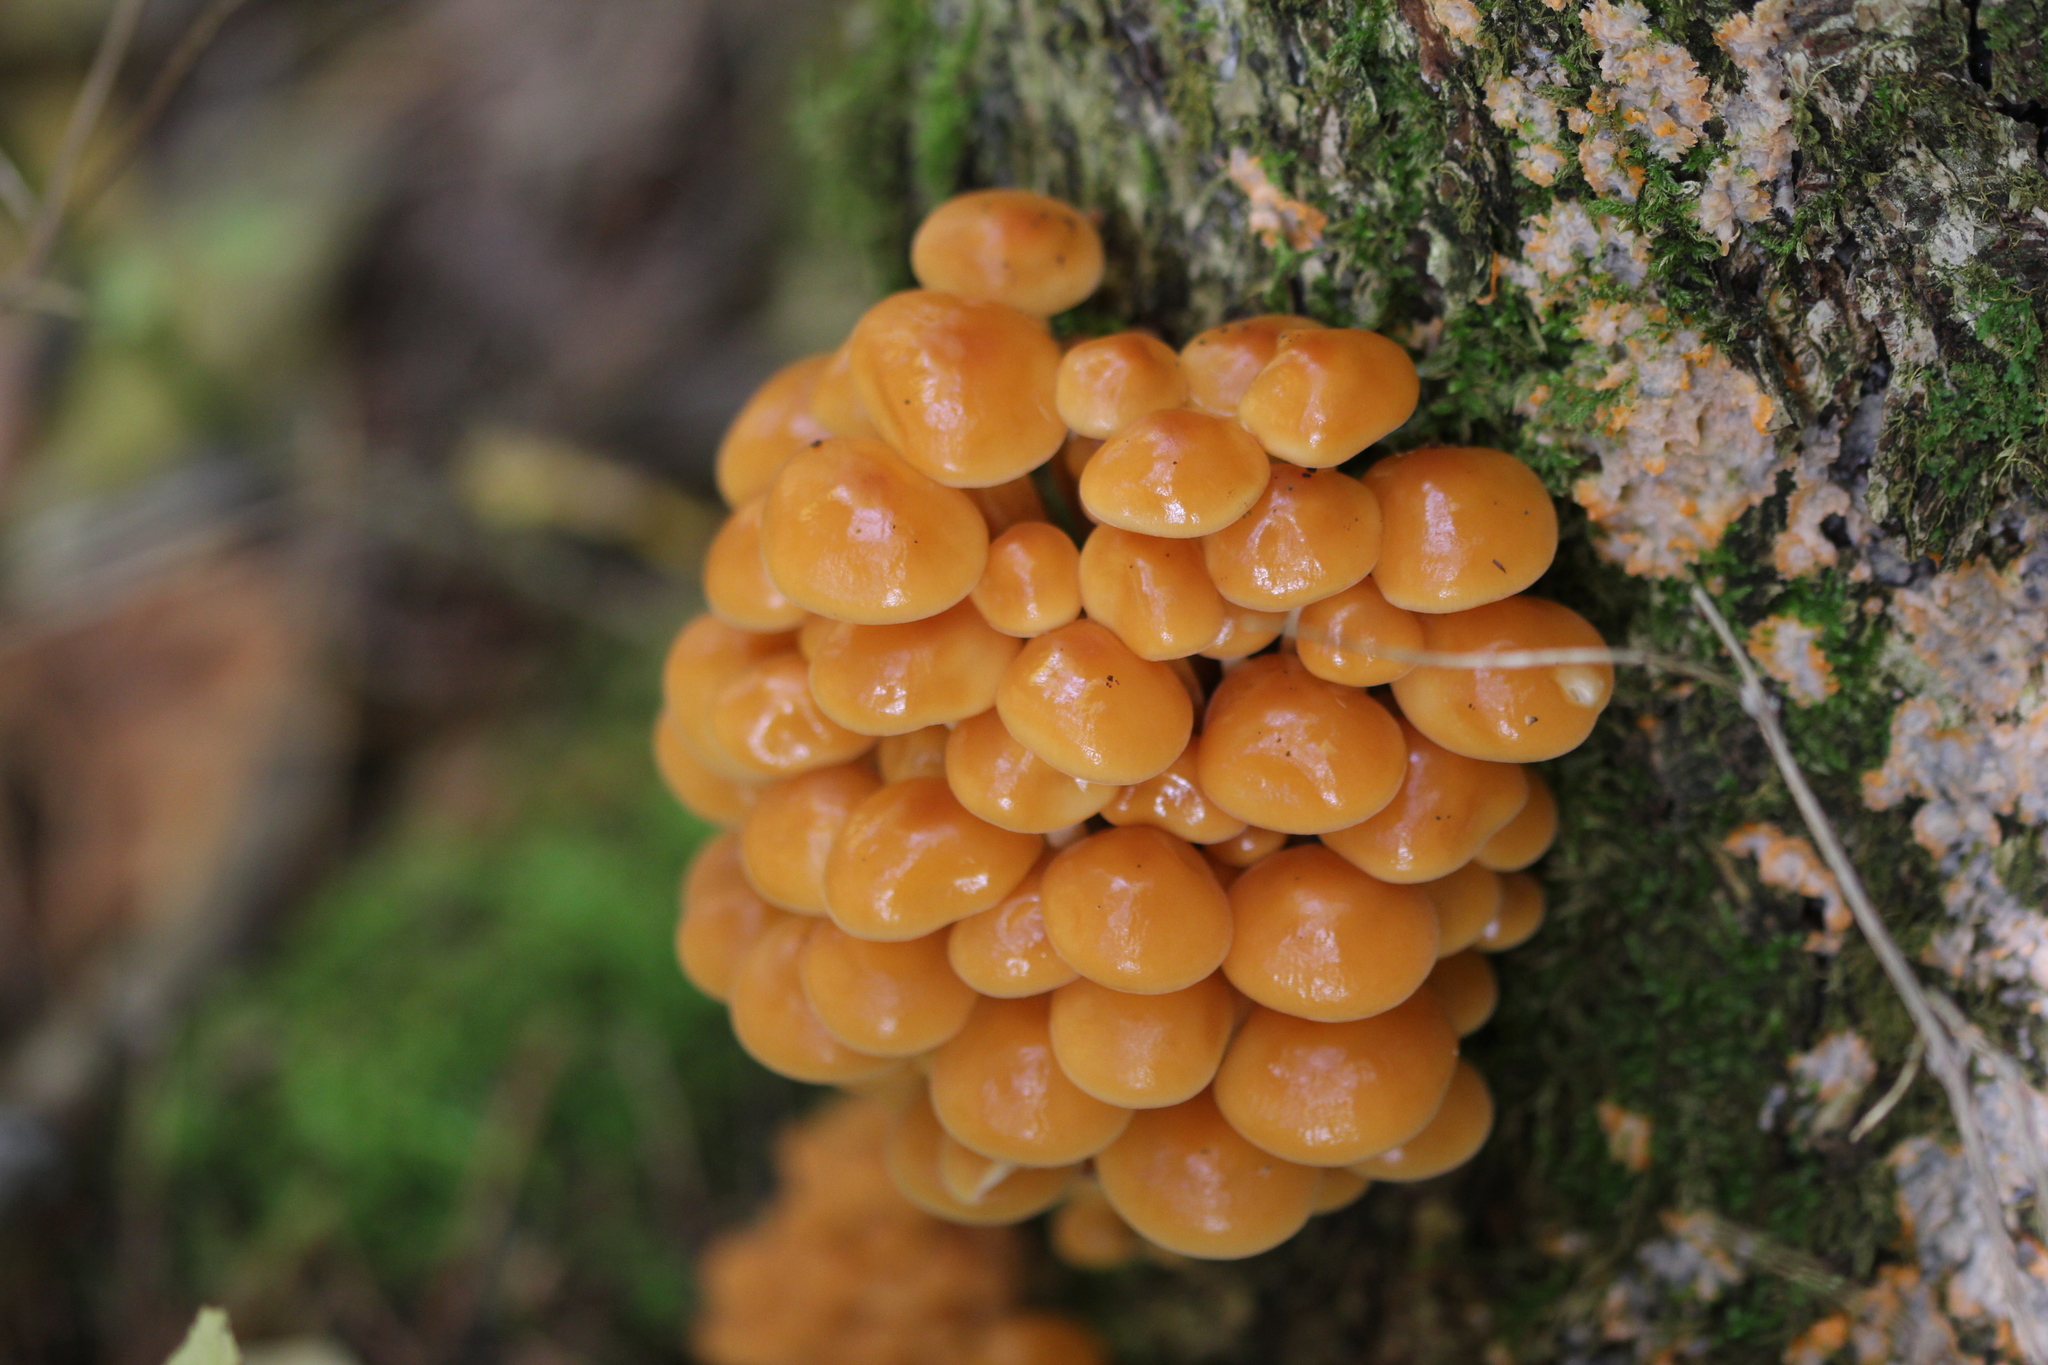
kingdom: Fungi
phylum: Basidiomycota
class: Agaricomycetes
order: Agaricales
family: Physalacriaceae
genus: Flammulina
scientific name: Flammulina velutipes
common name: Velvet shank
